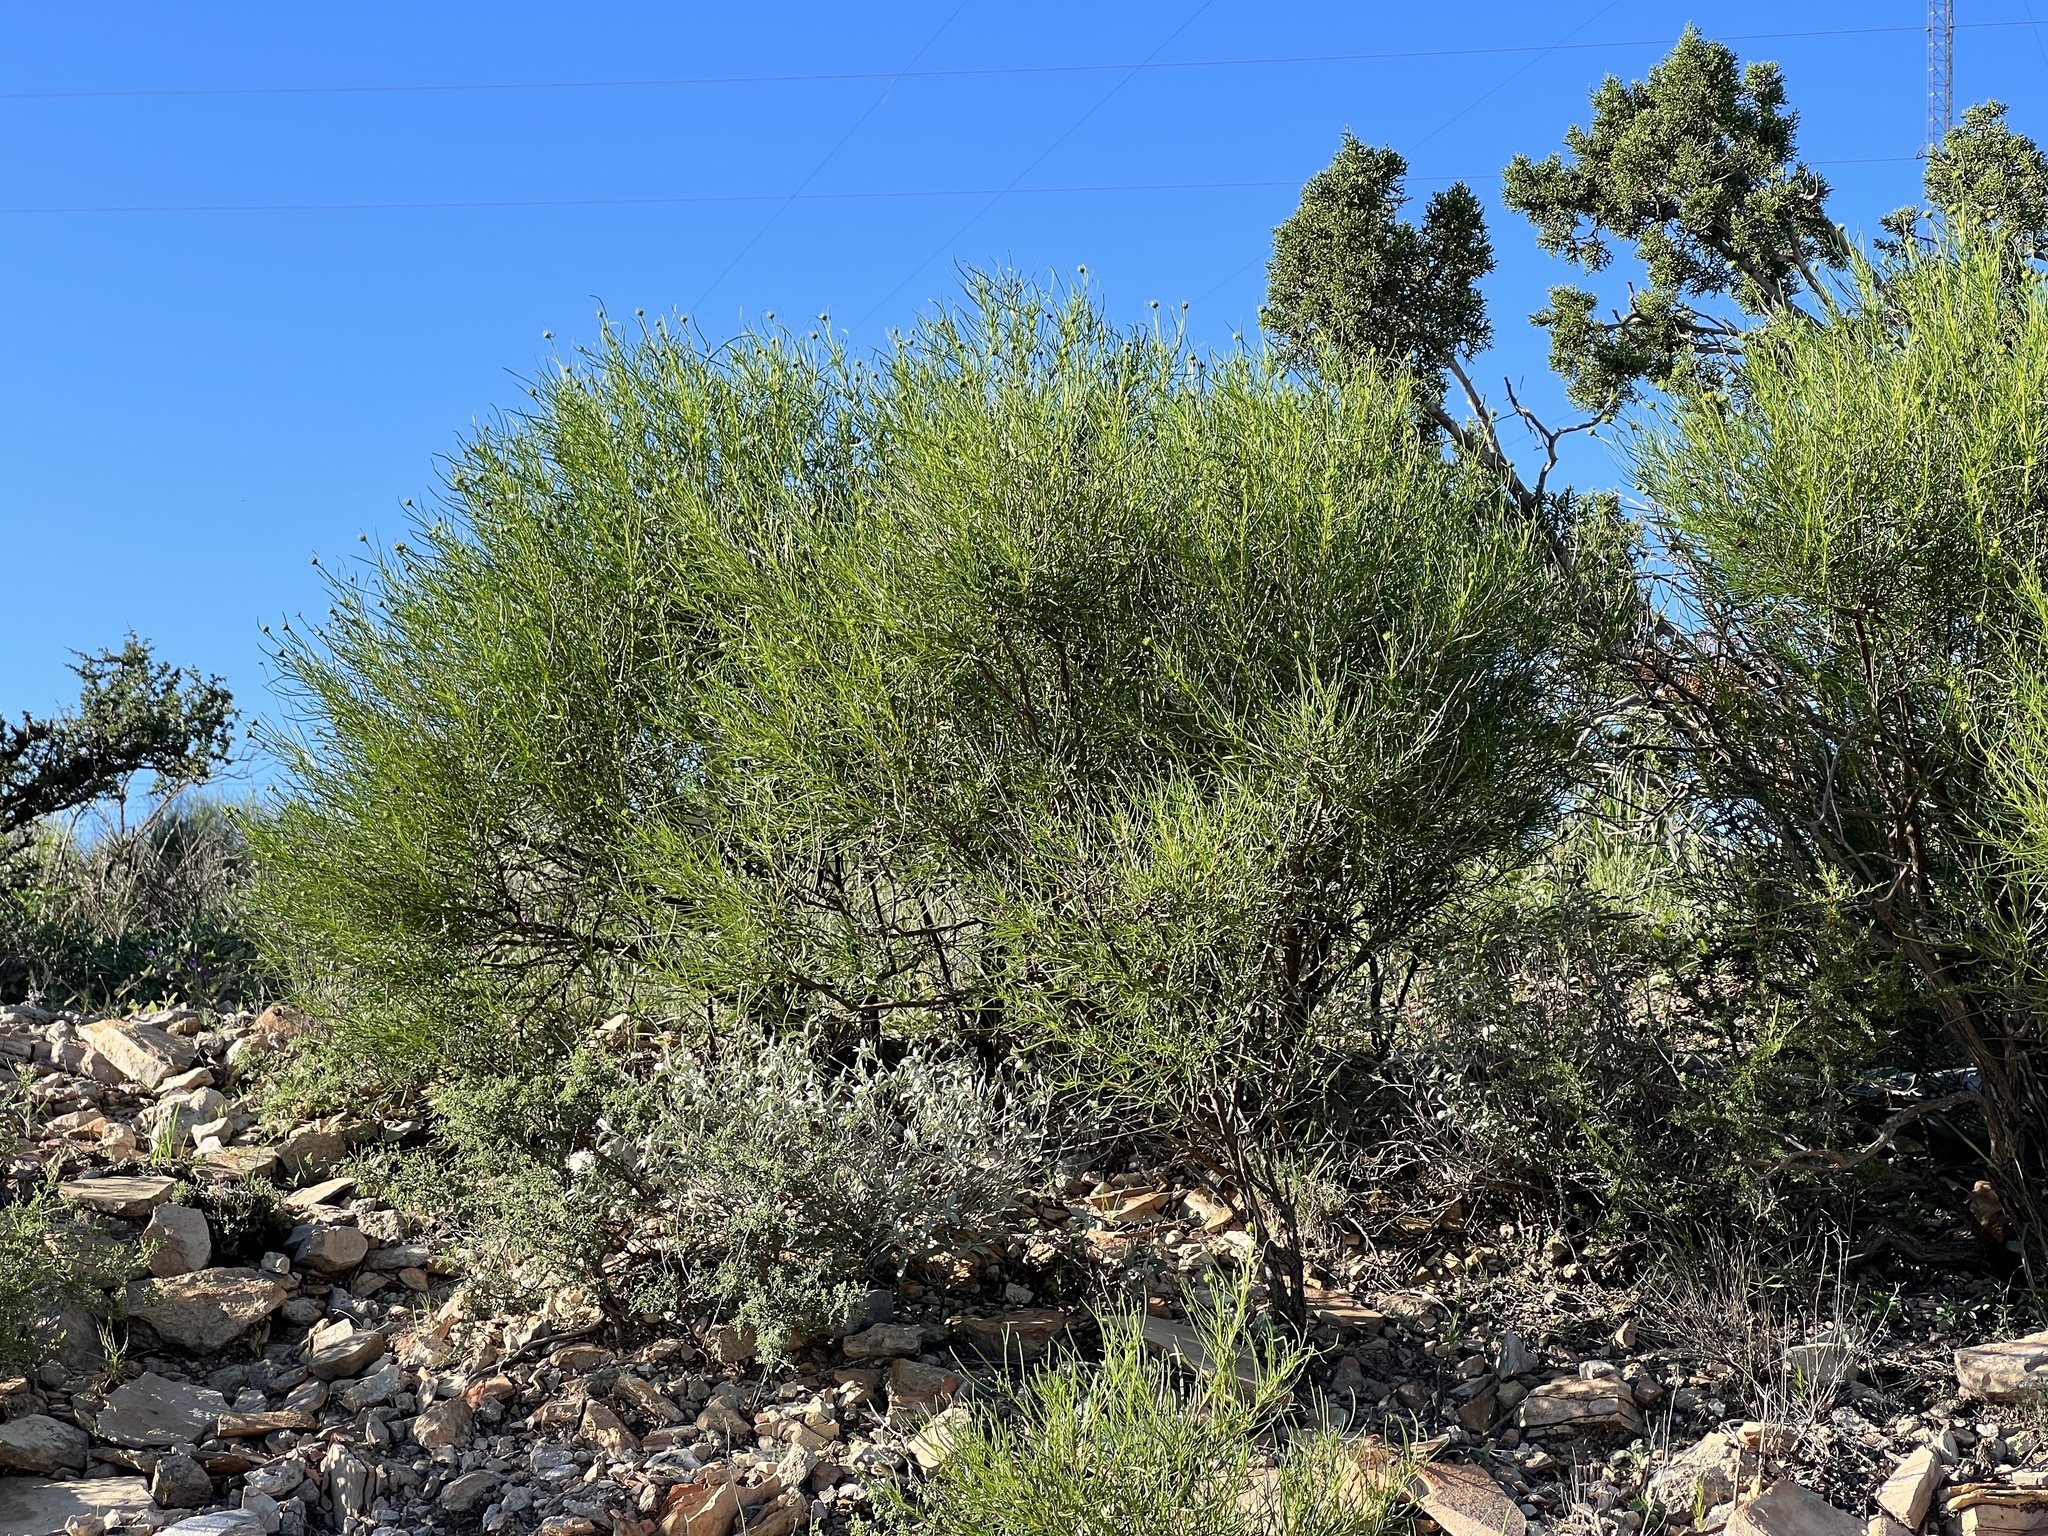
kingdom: Plantae
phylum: Tracheophyta
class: Magnoliopsida
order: Asterales
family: Asteraceae
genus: Sidneya
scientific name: Sidneya tenuifolia
